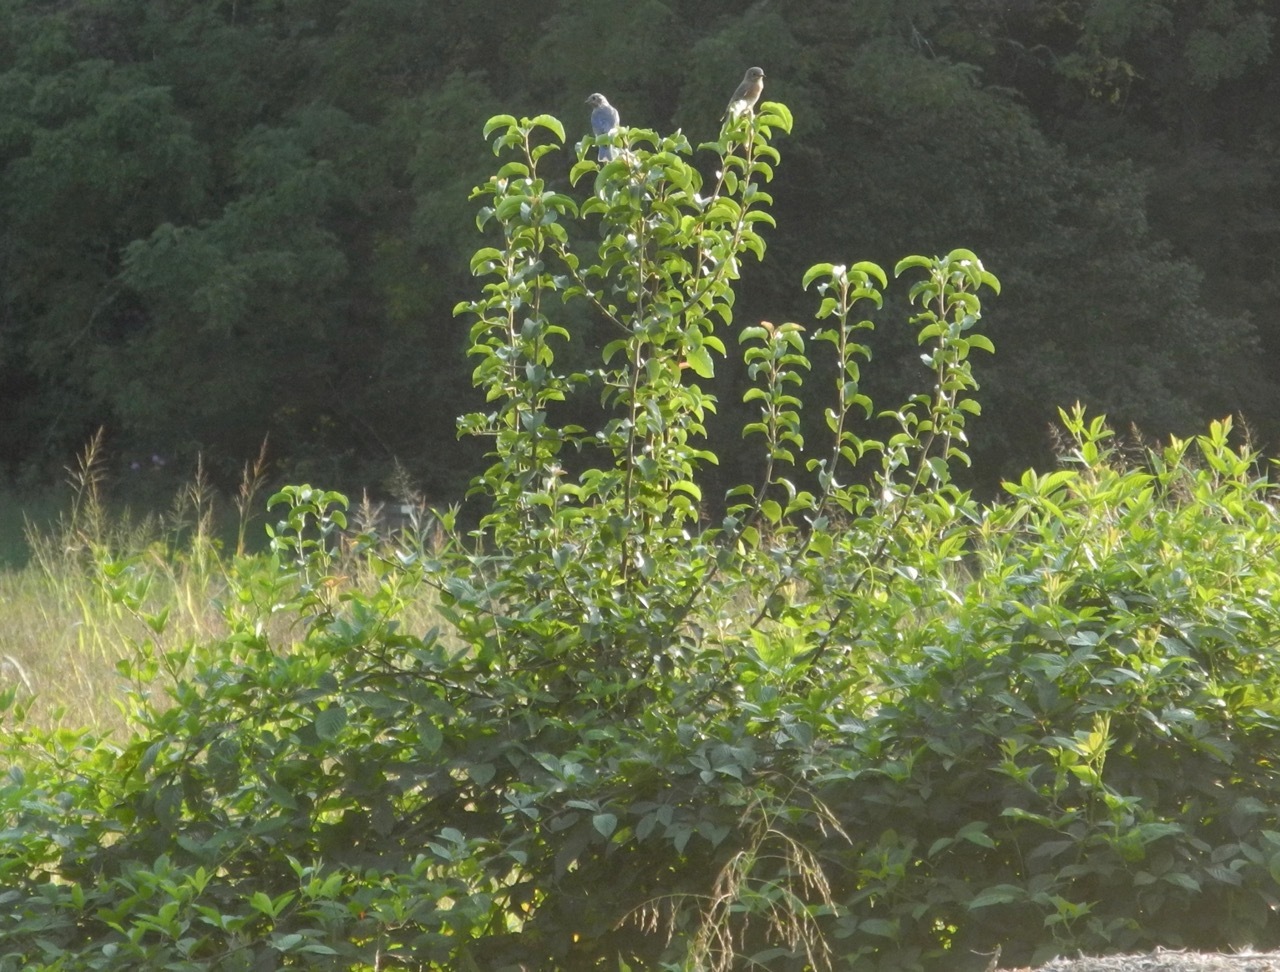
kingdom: Animalia
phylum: Chordata
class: Aves
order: Passeriformes
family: Turdidae
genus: Sialia
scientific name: Sialia sialis
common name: Eastern bluebird
